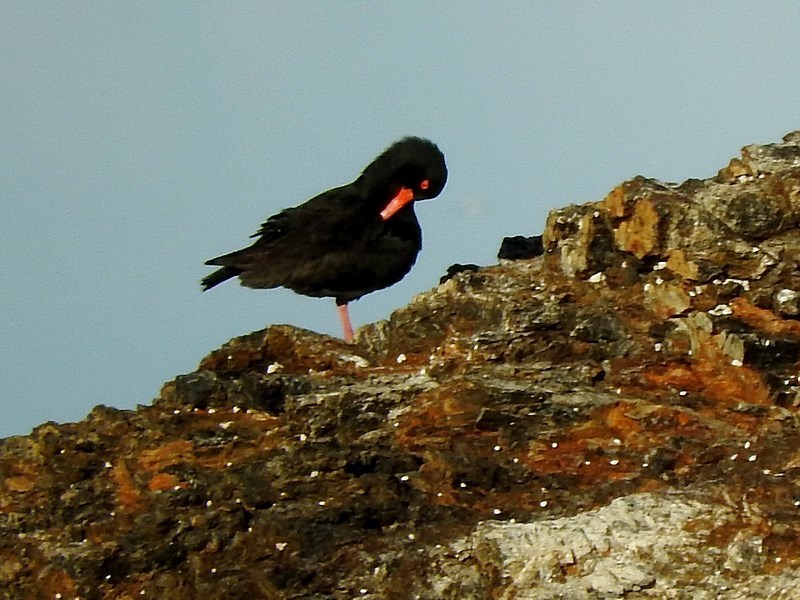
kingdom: Animalia
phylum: Chordata
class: Aves
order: Charadriiformes
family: Haematopodidae
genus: Haematopus
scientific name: Haematopus fuliginosus
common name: Sooty oystercatcher
